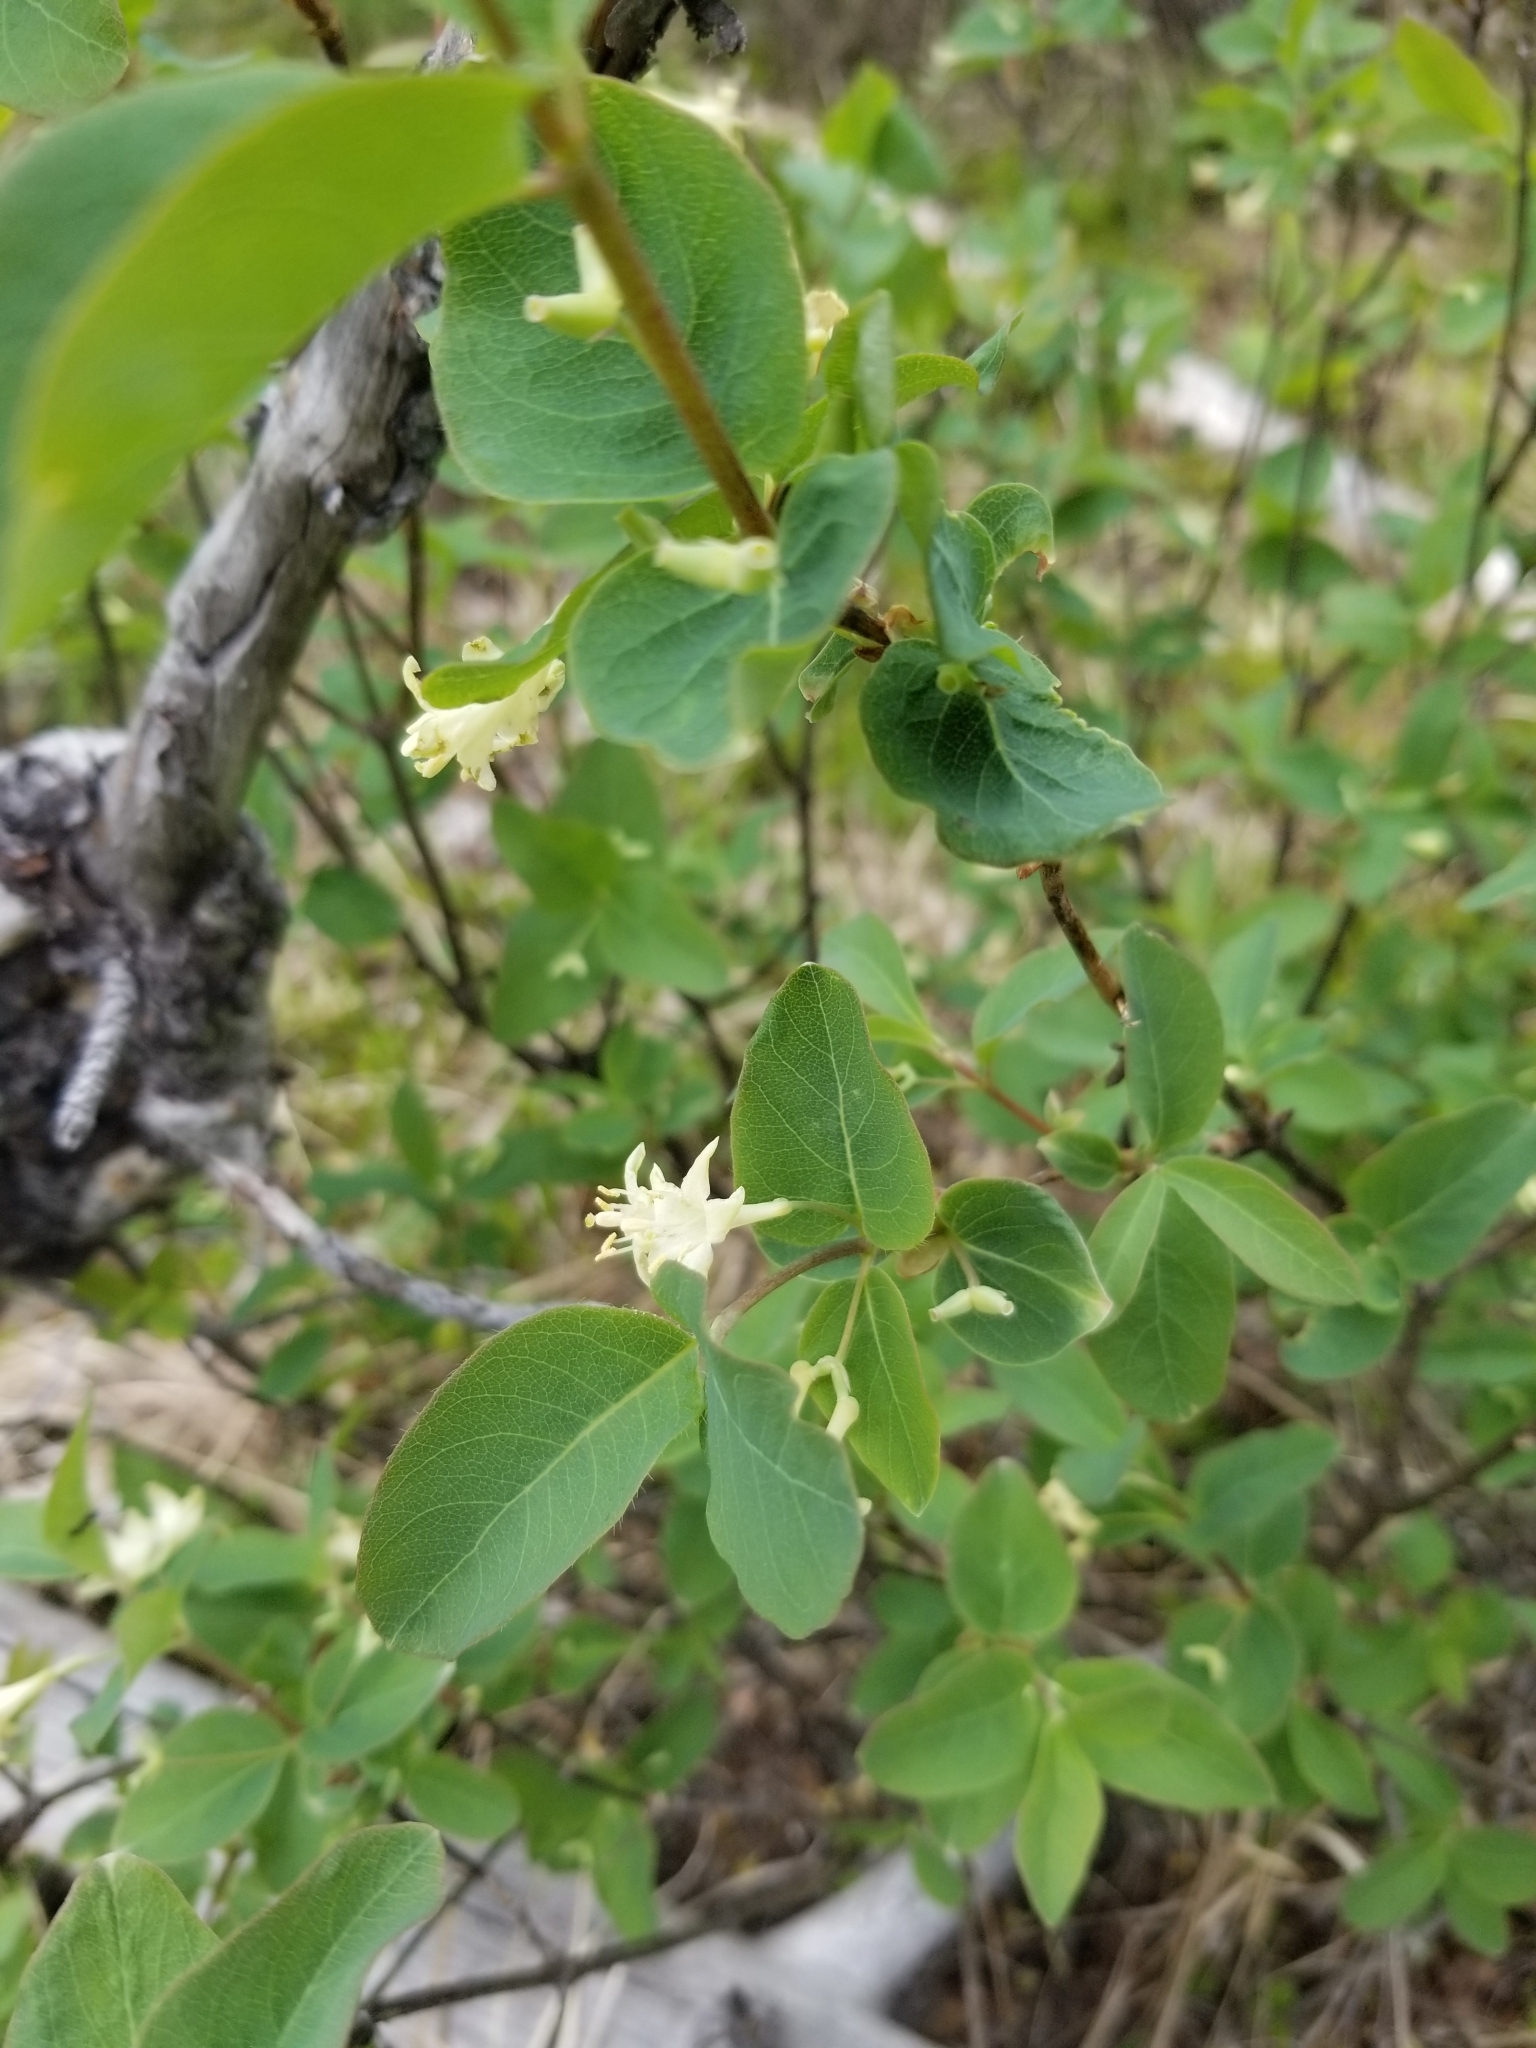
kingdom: Plantae
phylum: Tracheophyta
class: Magnoliopsida
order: Dipsacales
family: Caprifoliaceae
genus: Lonicera
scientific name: Lonicera utahensis
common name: Utah honeysuckle
